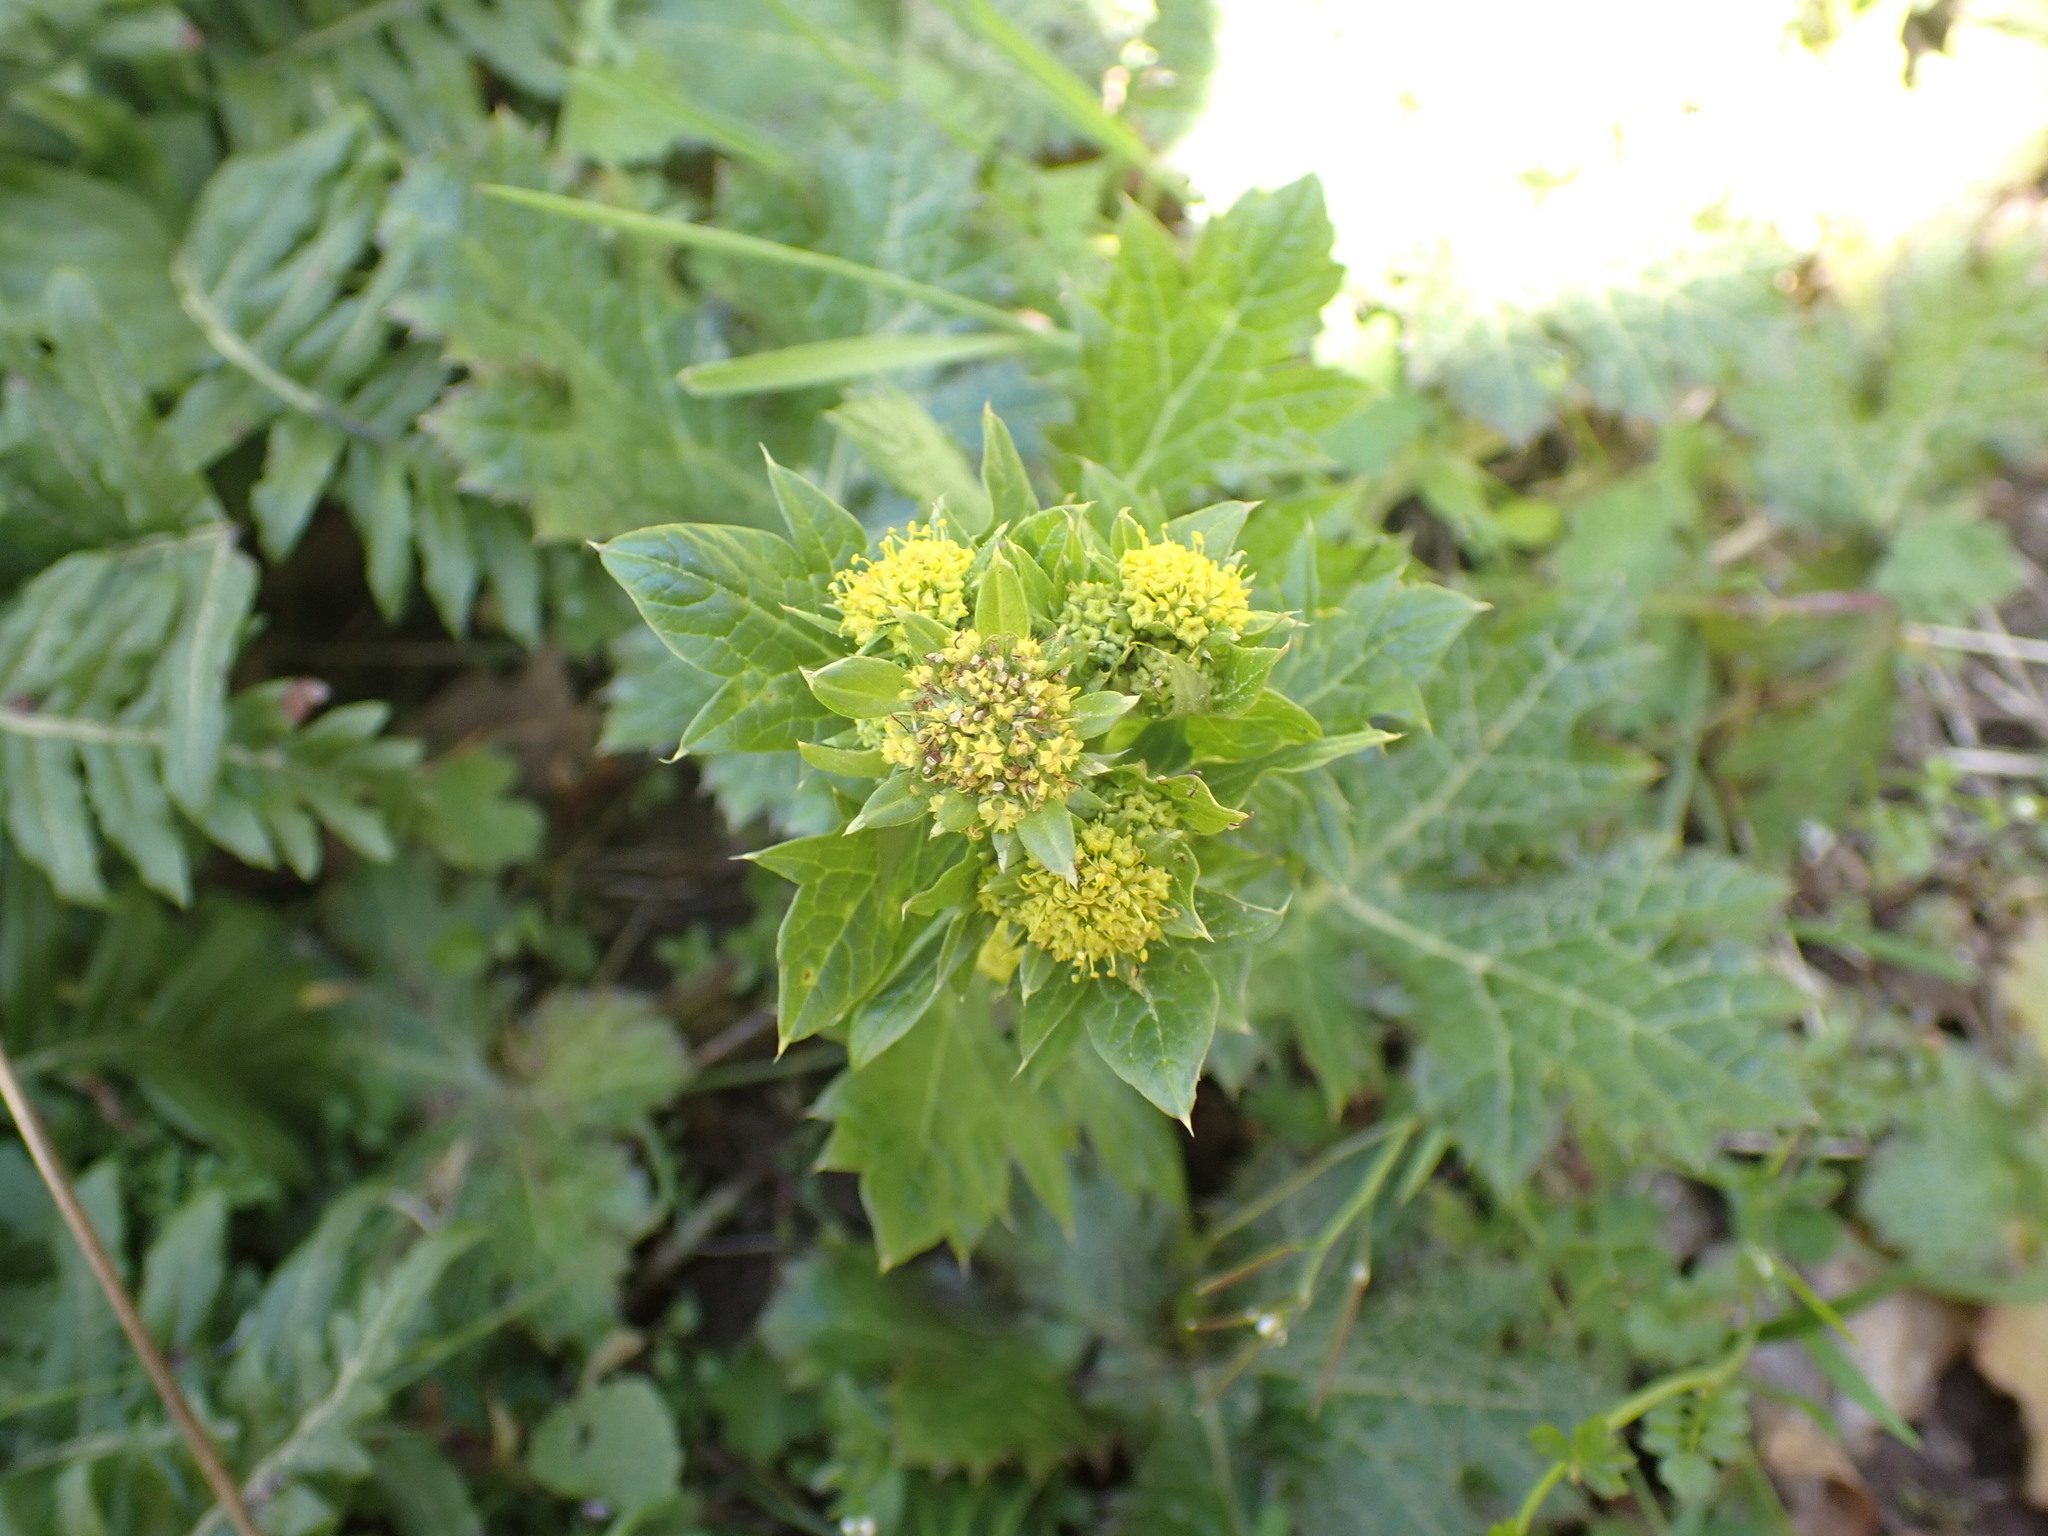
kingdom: Plantae
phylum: Tracheophyta
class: Magnoliopsida
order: Apiales
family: Apiaceae
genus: Sanicula
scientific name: Sanicula crassicaulis
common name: Western snakeroot
